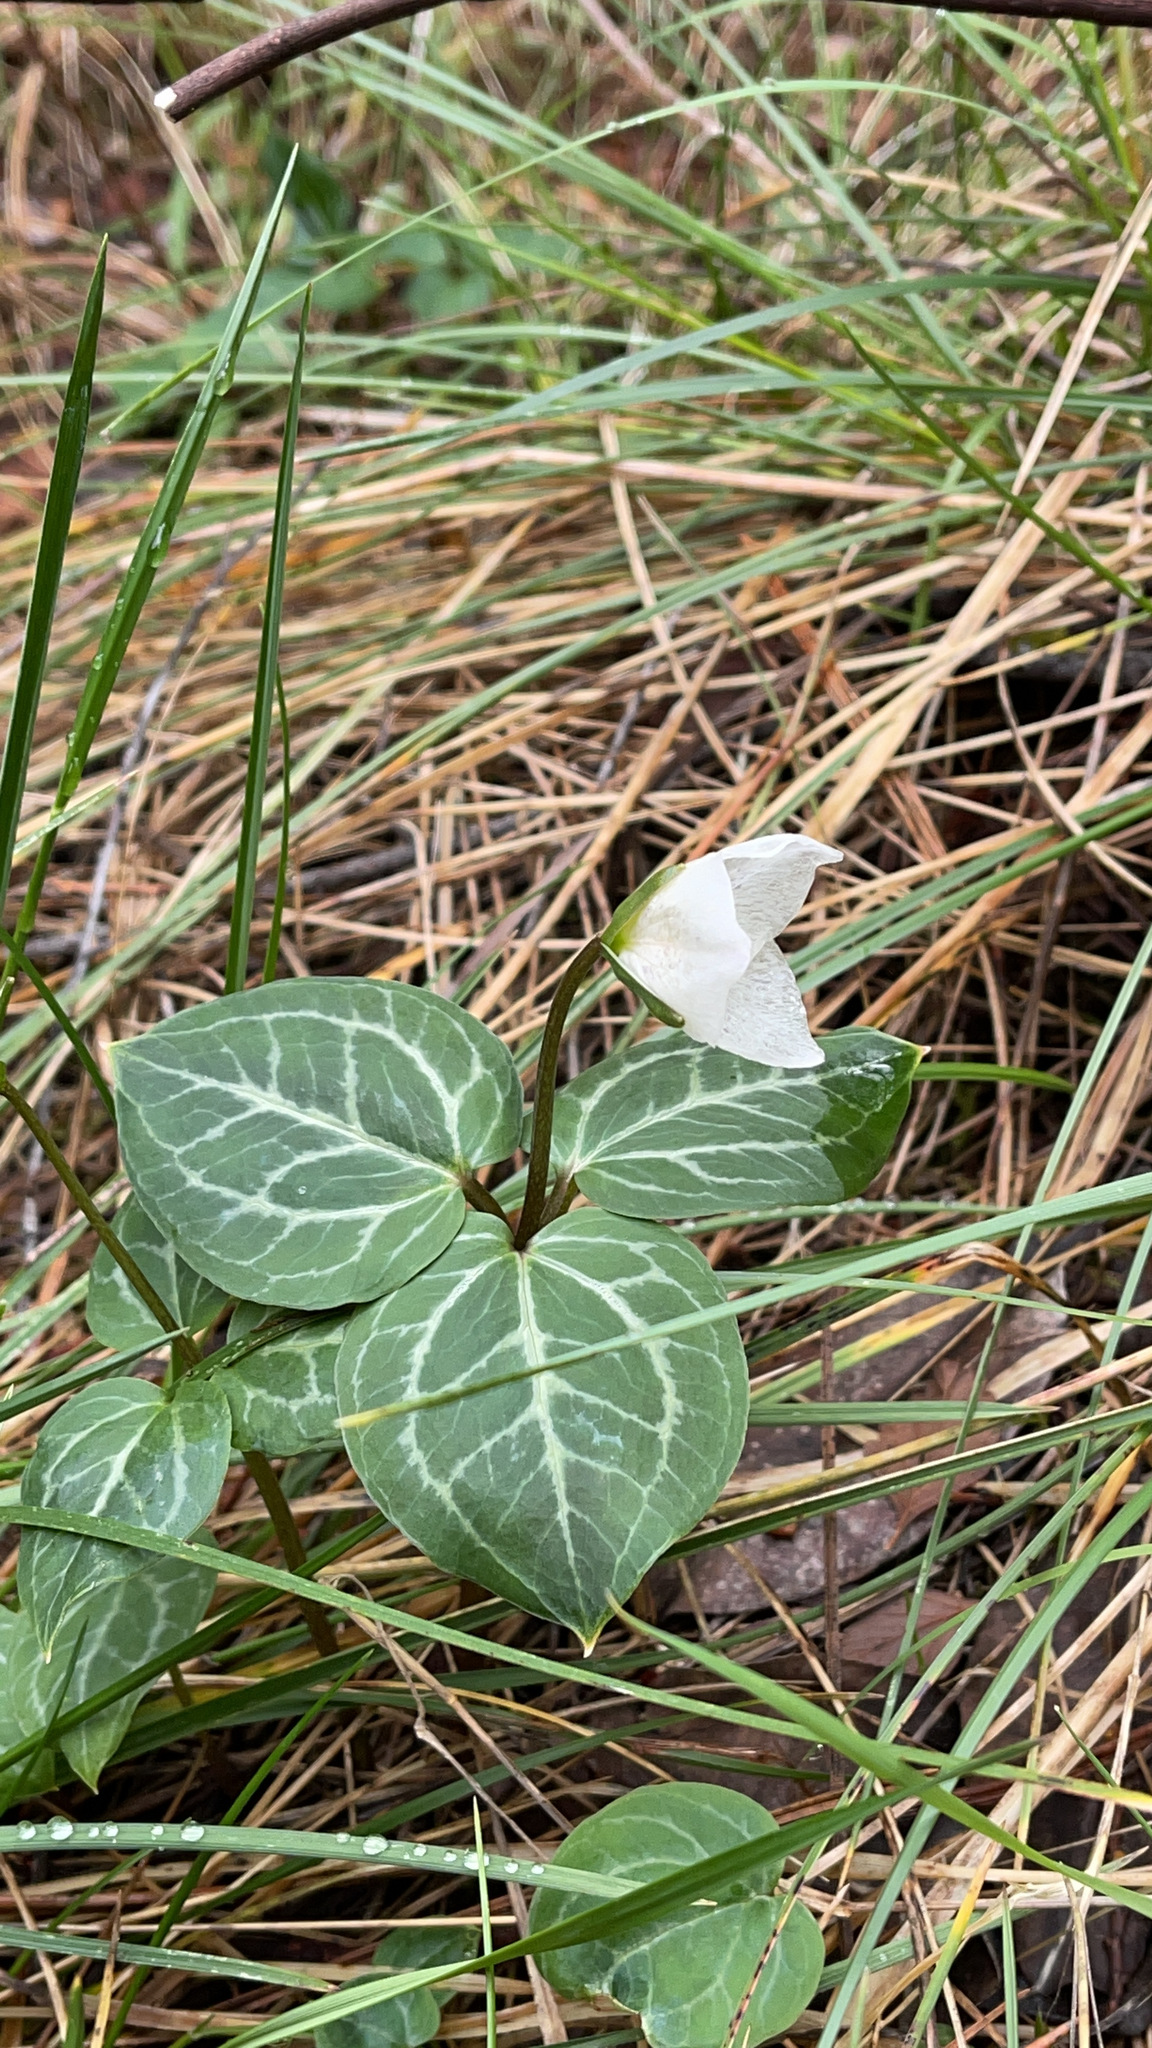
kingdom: Plantae
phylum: Tracheophyta
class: Liliopsida
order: Liliales
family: Melanthiaceae
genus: Pseudotrillium
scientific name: Pseudotrillium rivale
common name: Brook wakerobin
